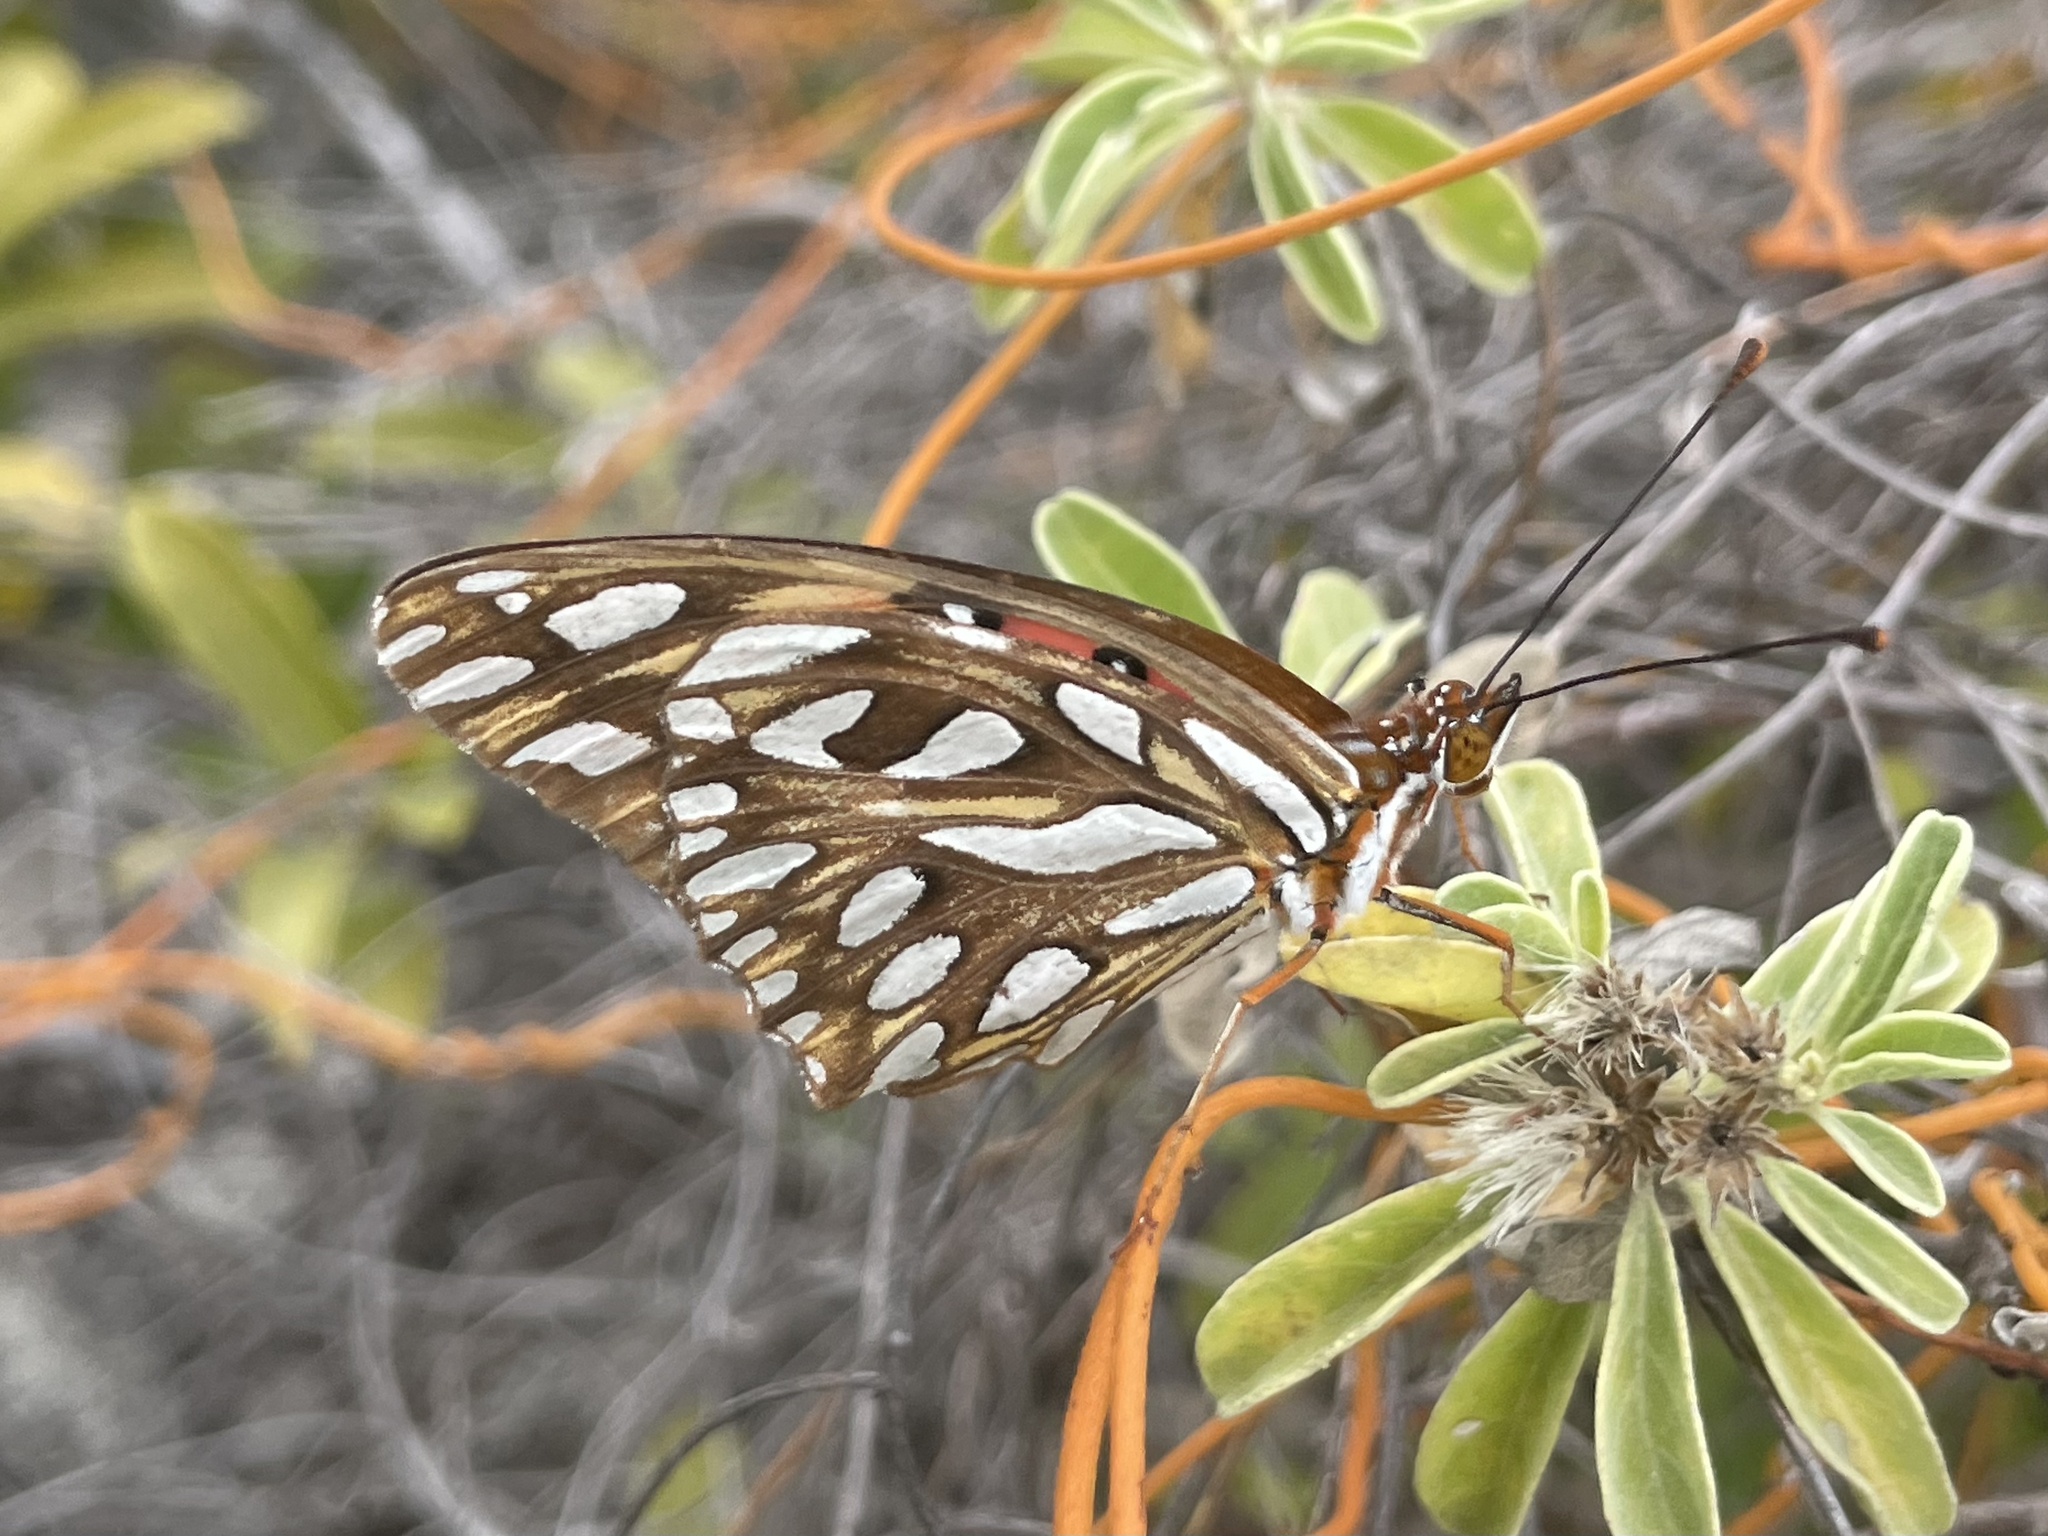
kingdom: Animalia
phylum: Arthropoda
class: Insecta
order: Lepidoptera
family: Nymphalidae
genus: Dione
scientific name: Dione vanillae
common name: Gulf fritillary
